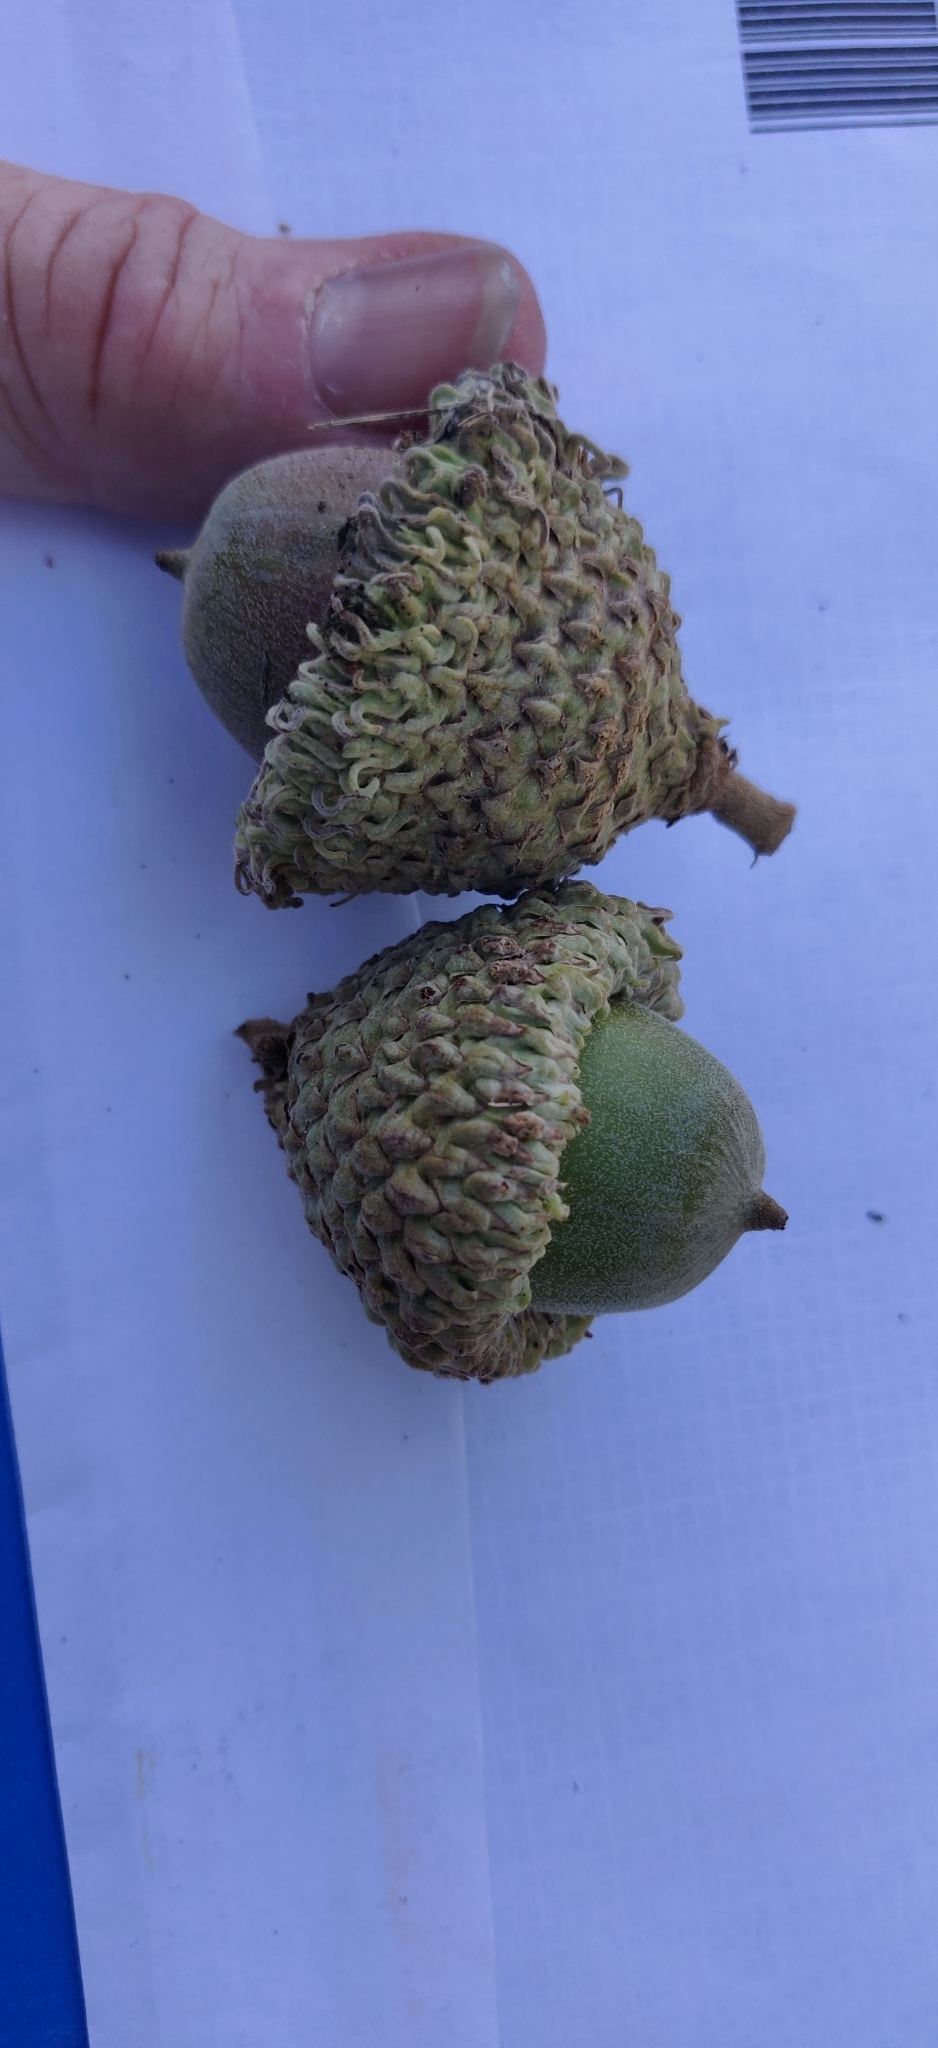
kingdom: Plantae
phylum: Tracheophyta
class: Magnoliopsida
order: Fagales
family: Fagaceae
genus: Quercus
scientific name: Quercus macrocarpa
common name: Bur oak
